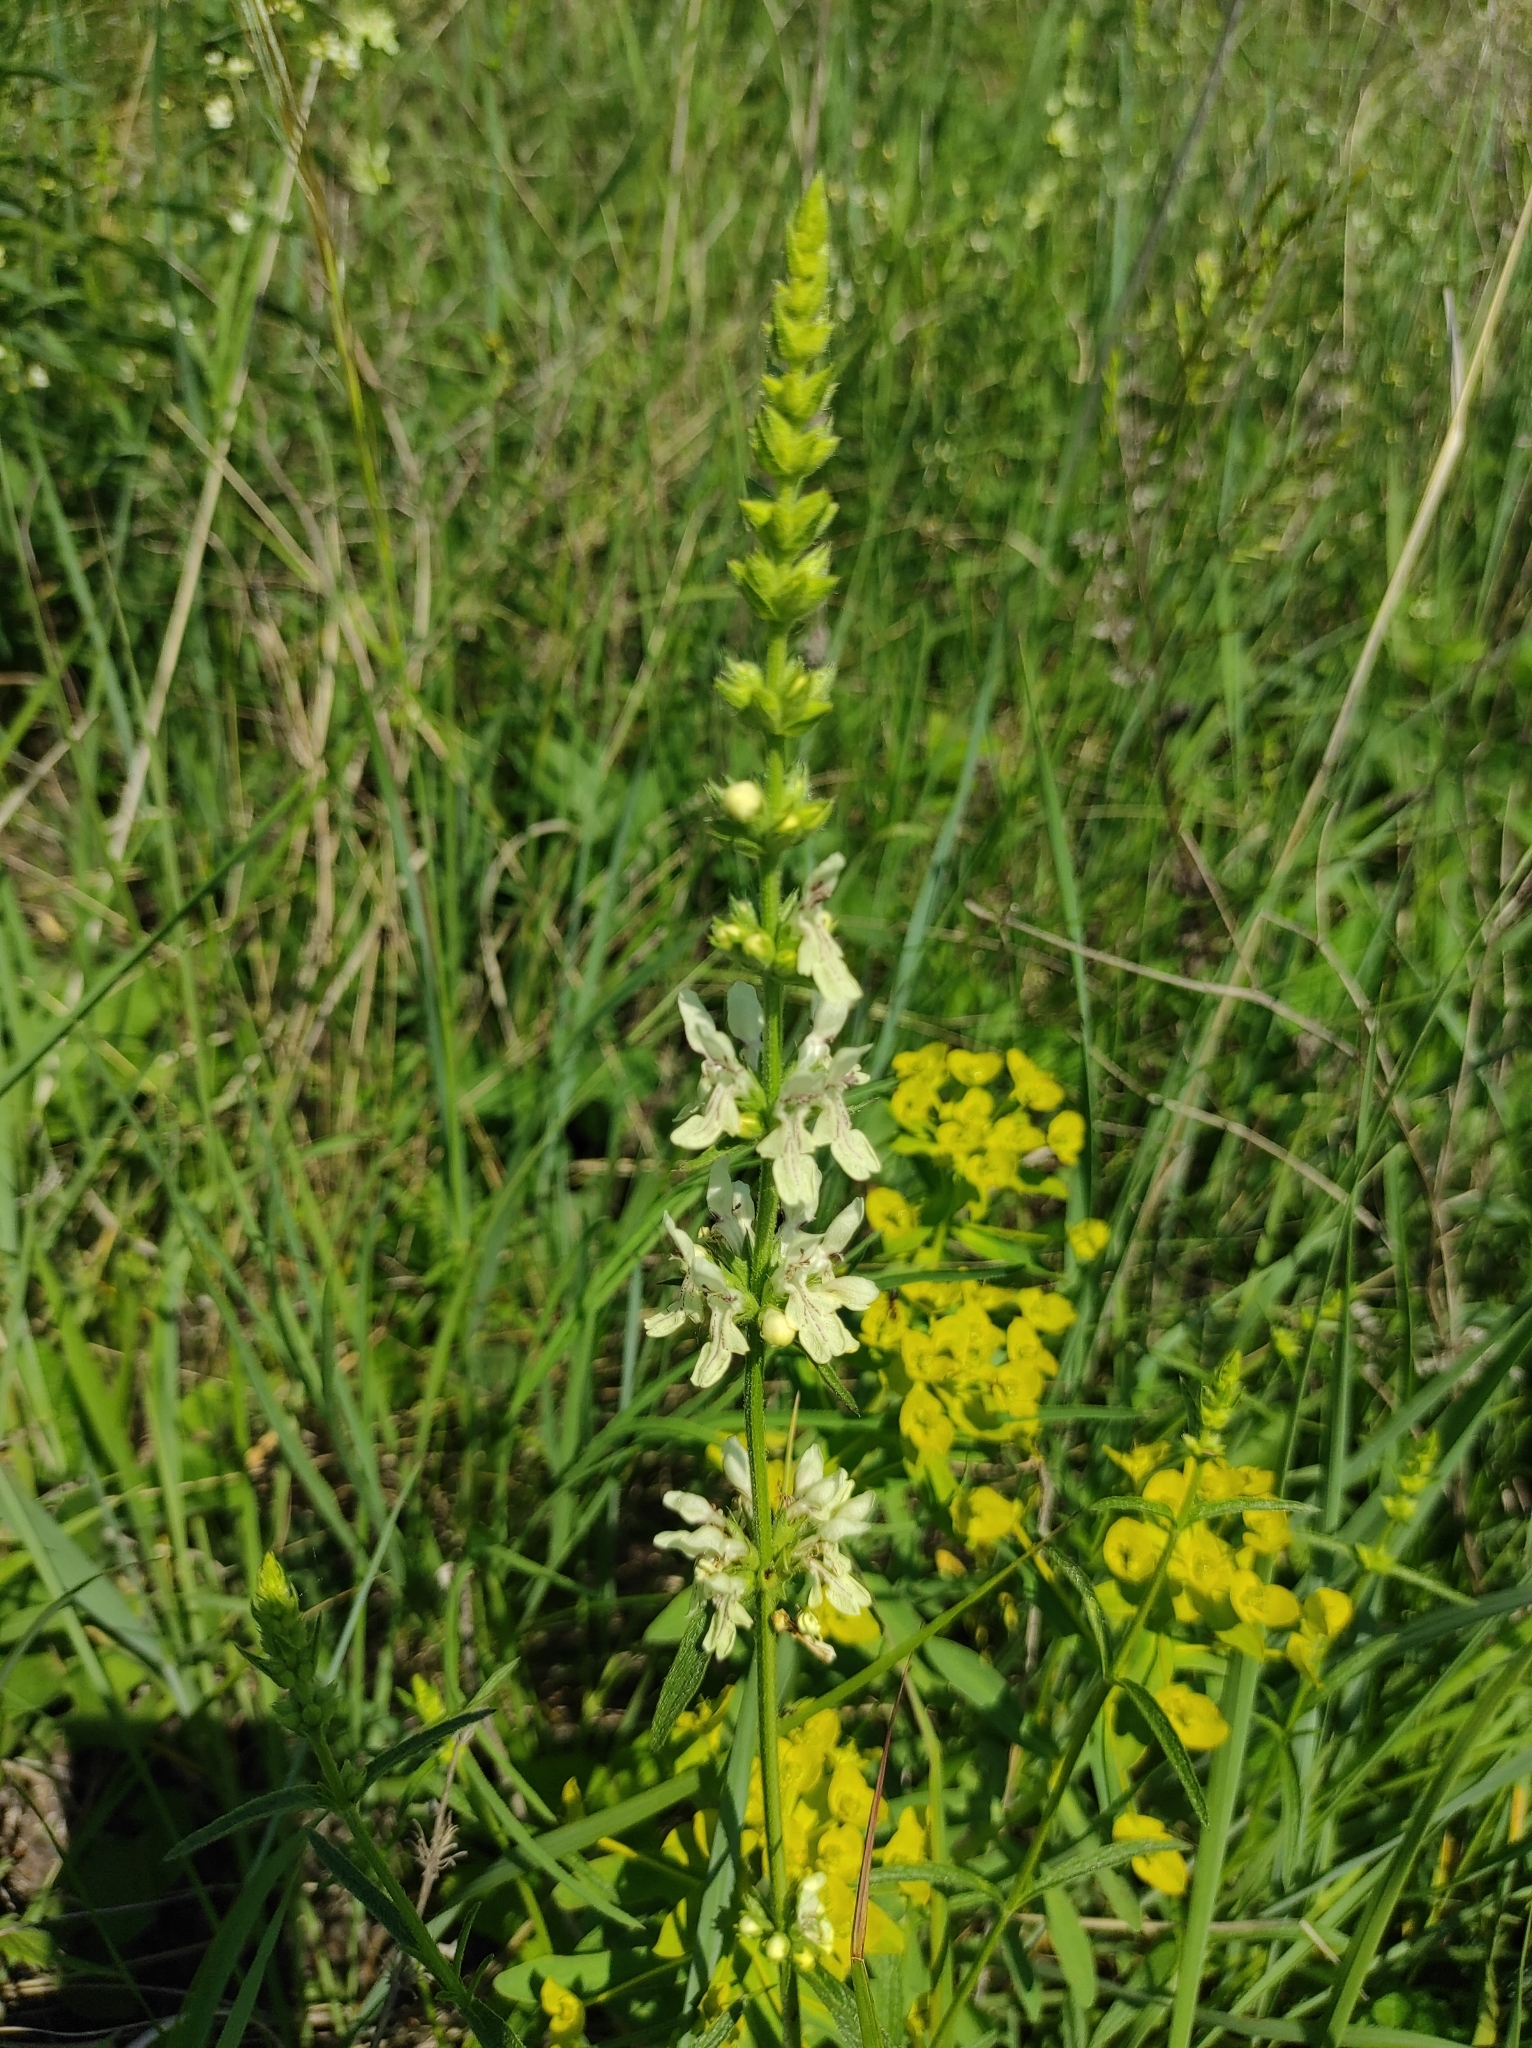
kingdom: Plantae
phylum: Tracheophyta
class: Magnoliopsida
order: Lamiales
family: Lamiaceae
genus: Stachys
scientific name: Stachys recta
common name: Perennial yellow-woundwort
